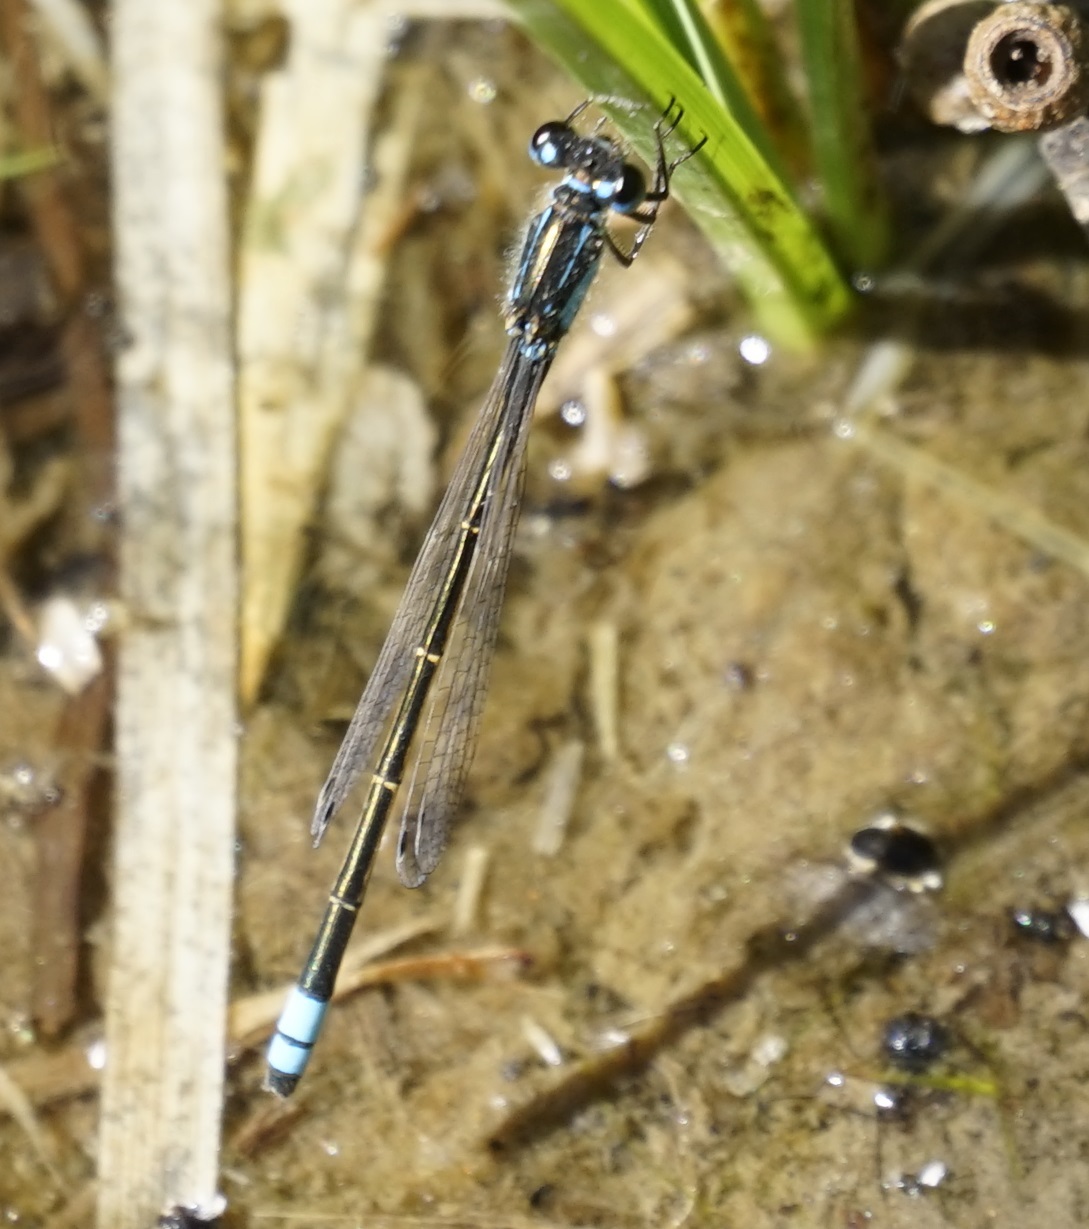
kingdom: Animalia
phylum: Arthropoda
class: Insecta
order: Odonata
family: Coenagrionidae
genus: Ischnura
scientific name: Ischnura heterosticta
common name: Common bluetail
